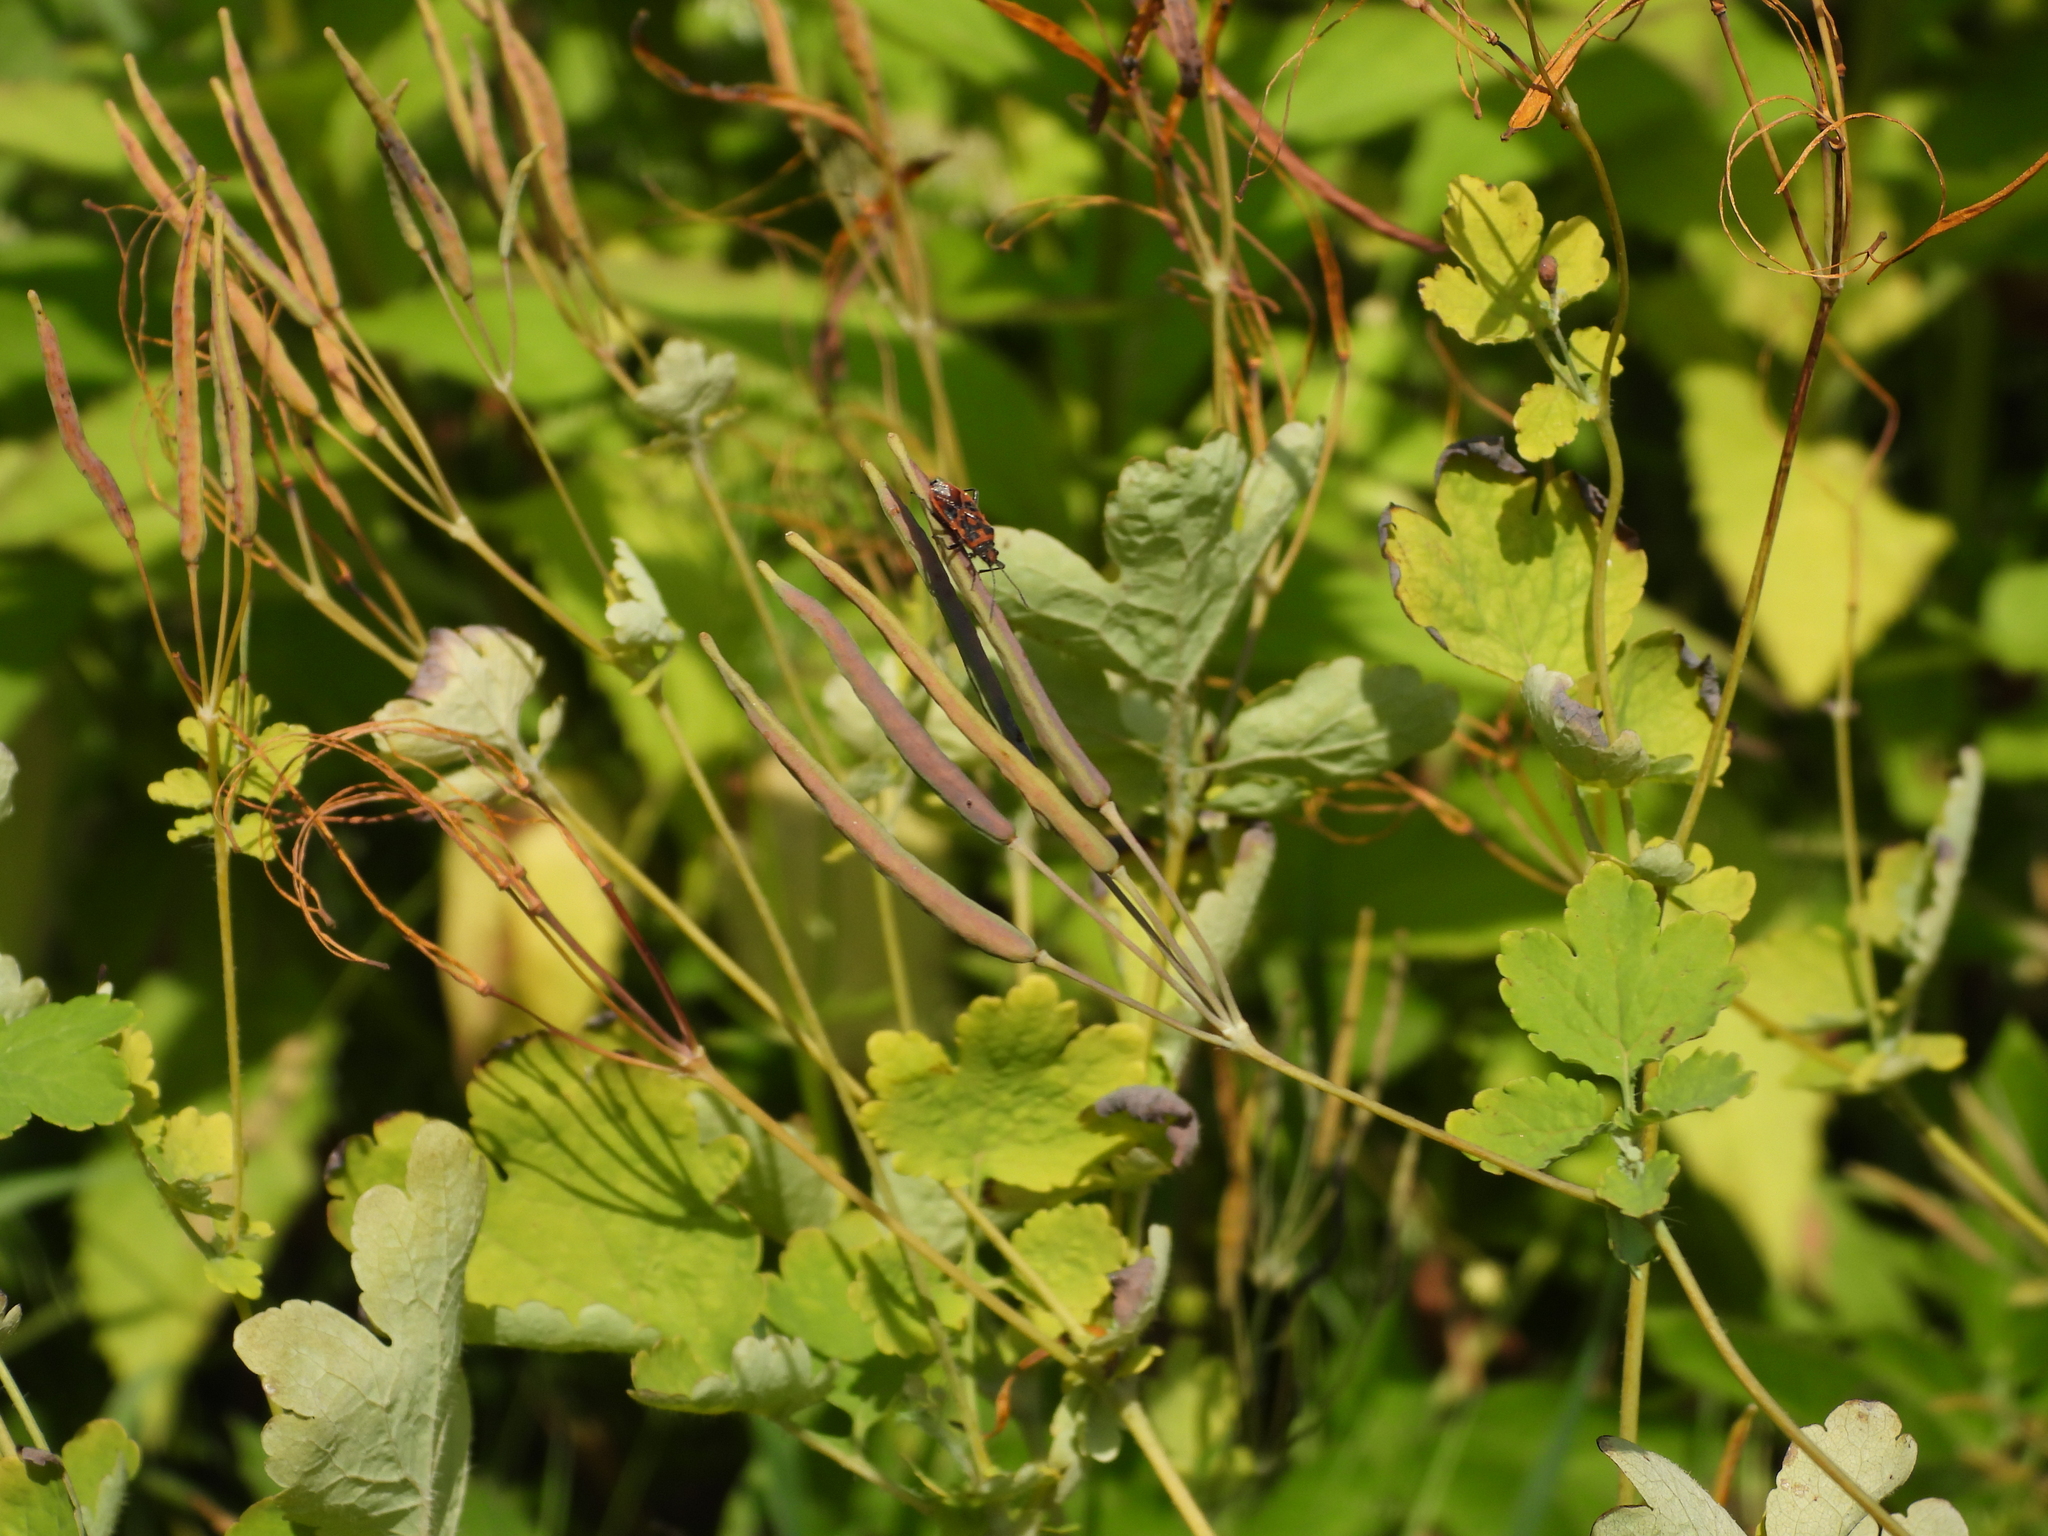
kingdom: Animalia
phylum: Arthropoda
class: Insecta
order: Hemiptera
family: Rhopalidae
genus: Corizus
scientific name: Corizus hyoscyami
